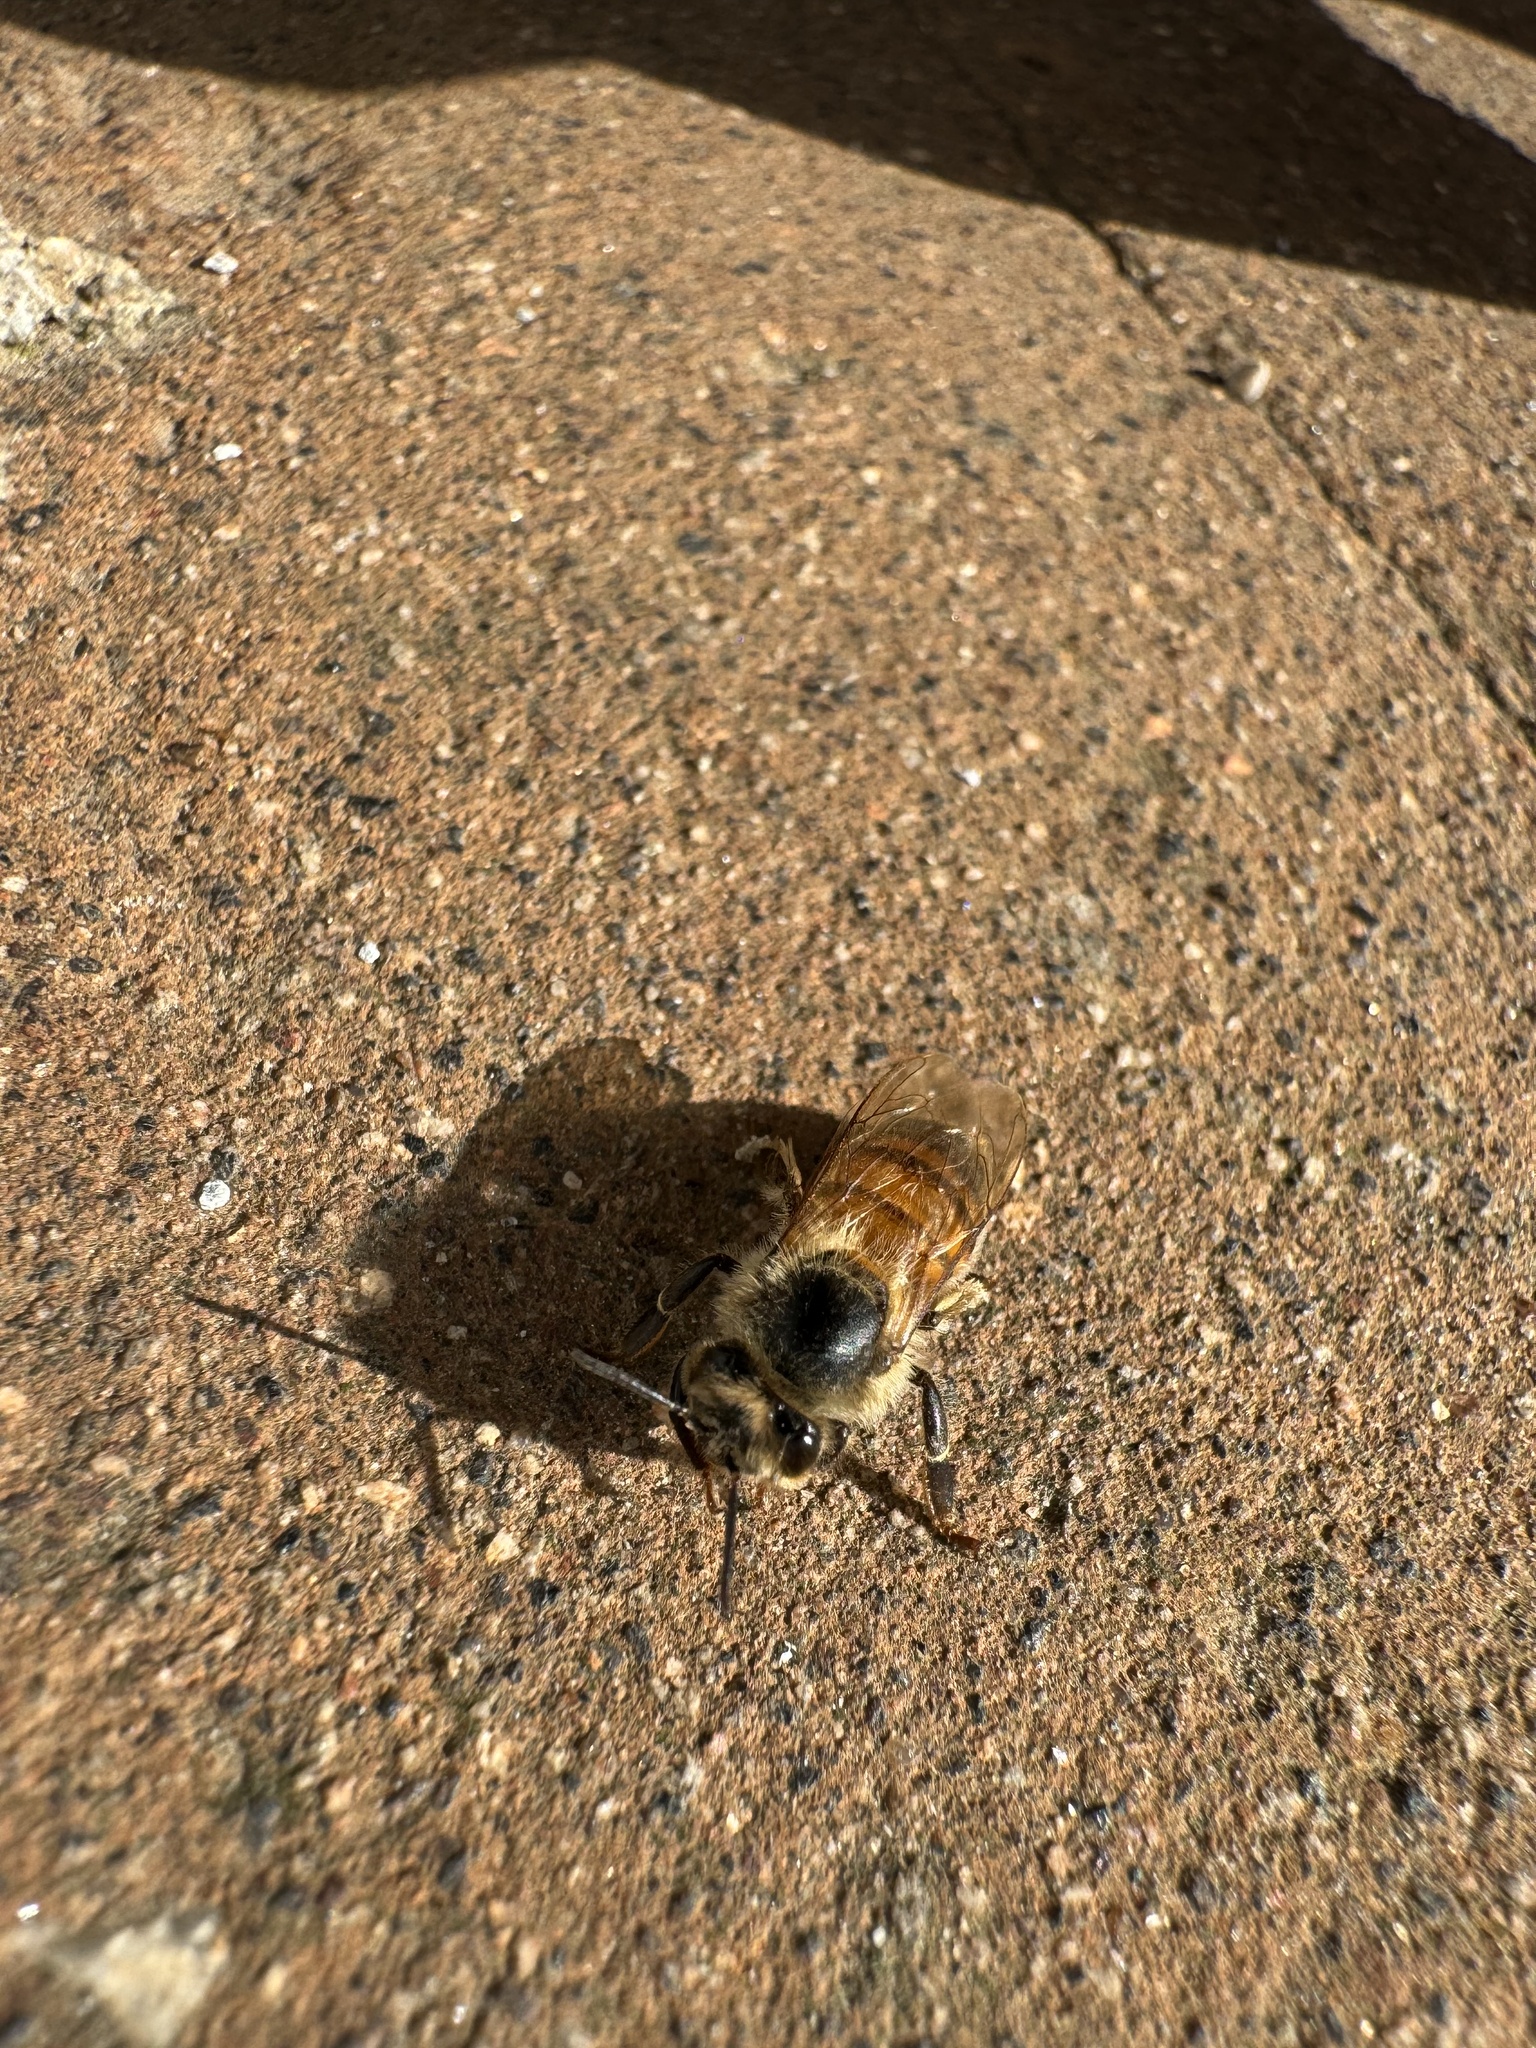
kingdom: Animalia
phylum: Arthropoda
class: Insecta
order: Hymenoptera
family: Apidae
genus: Apis
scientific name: Apis mellifera
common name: Honey bee
